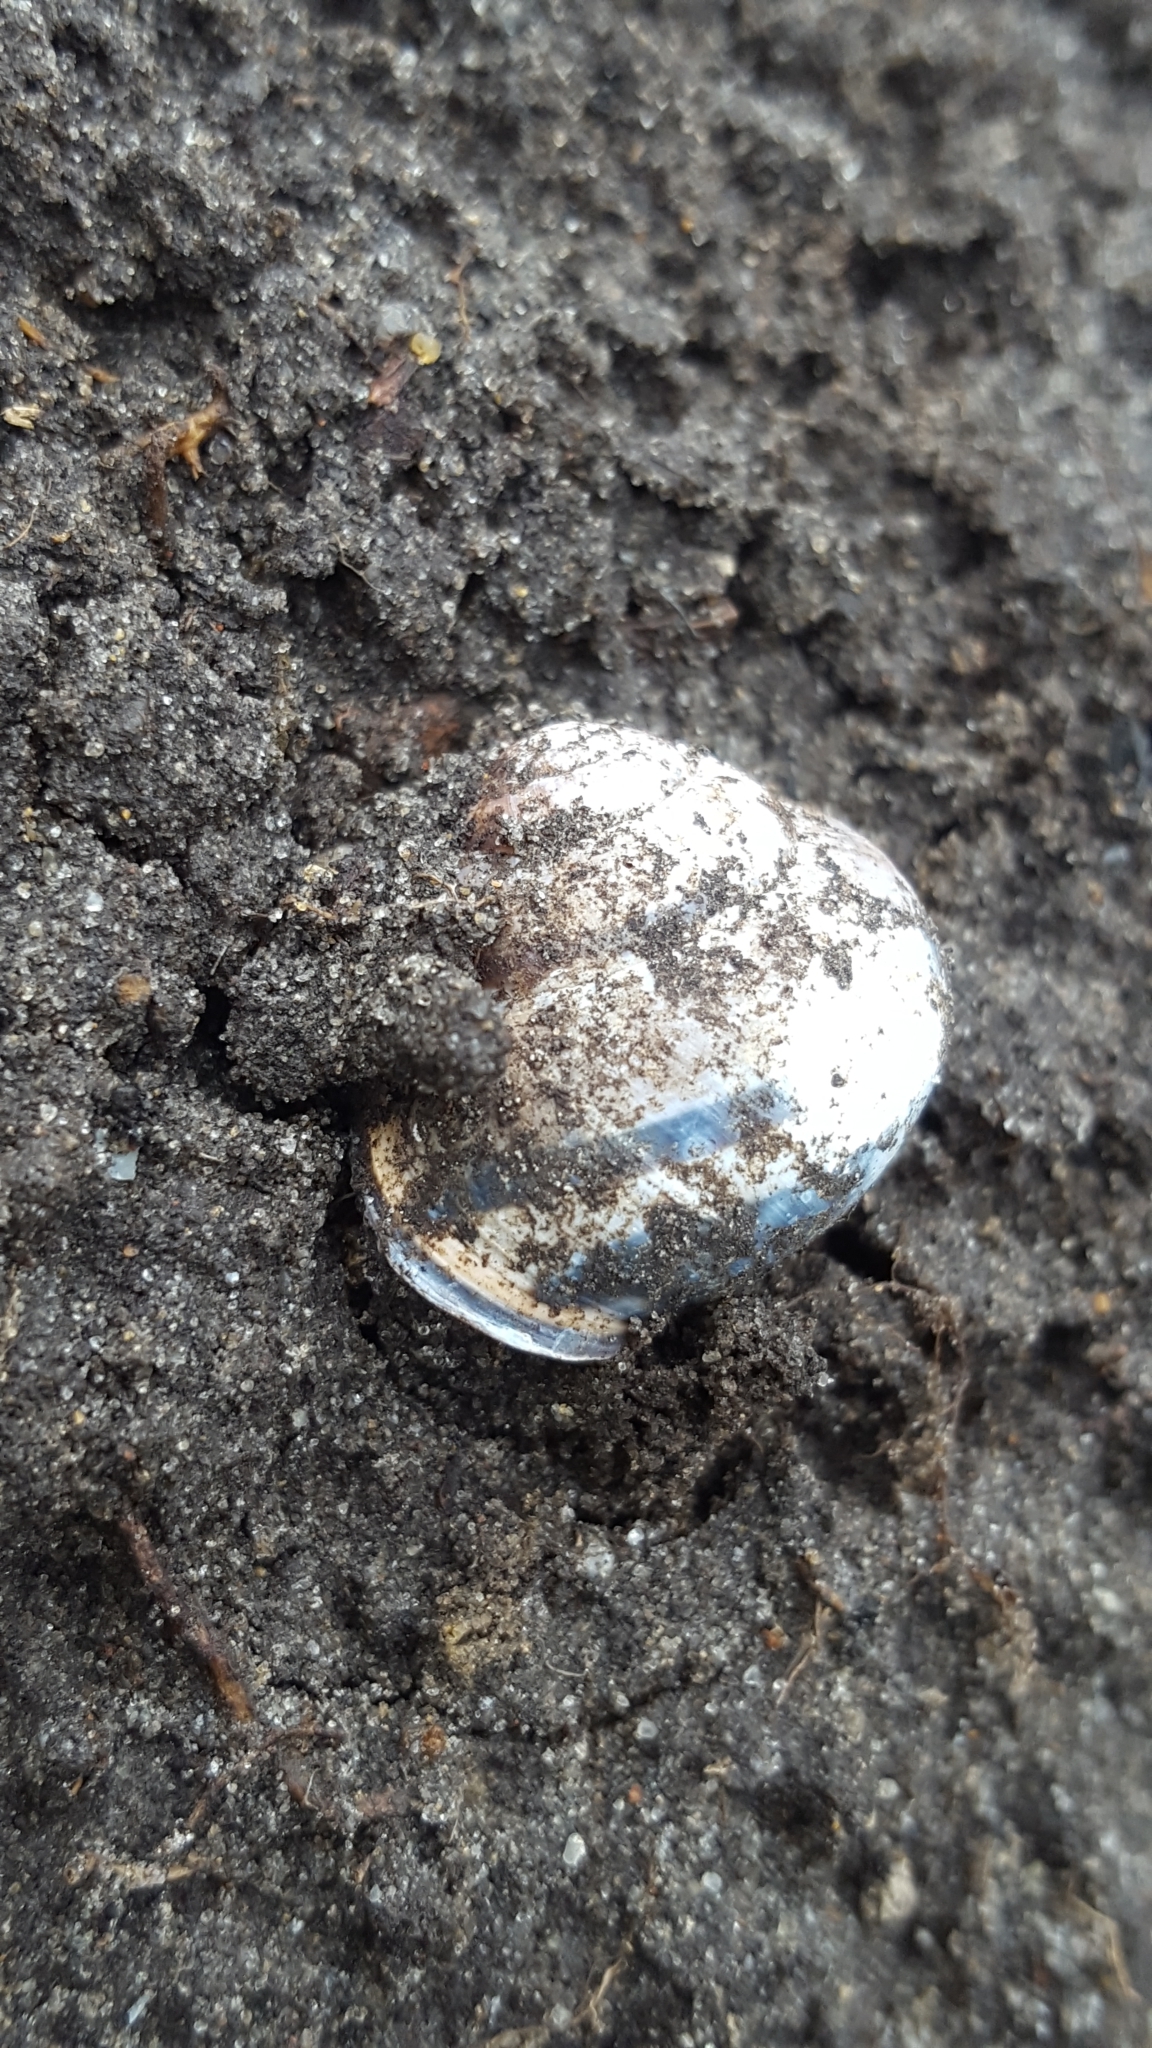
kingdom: Animalia
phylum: Mollusca
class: Gastropoda
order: Stylommatophora
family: Helicidae
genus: Cepaea
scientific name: Cepaea nemoralis
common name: Grovesnail
